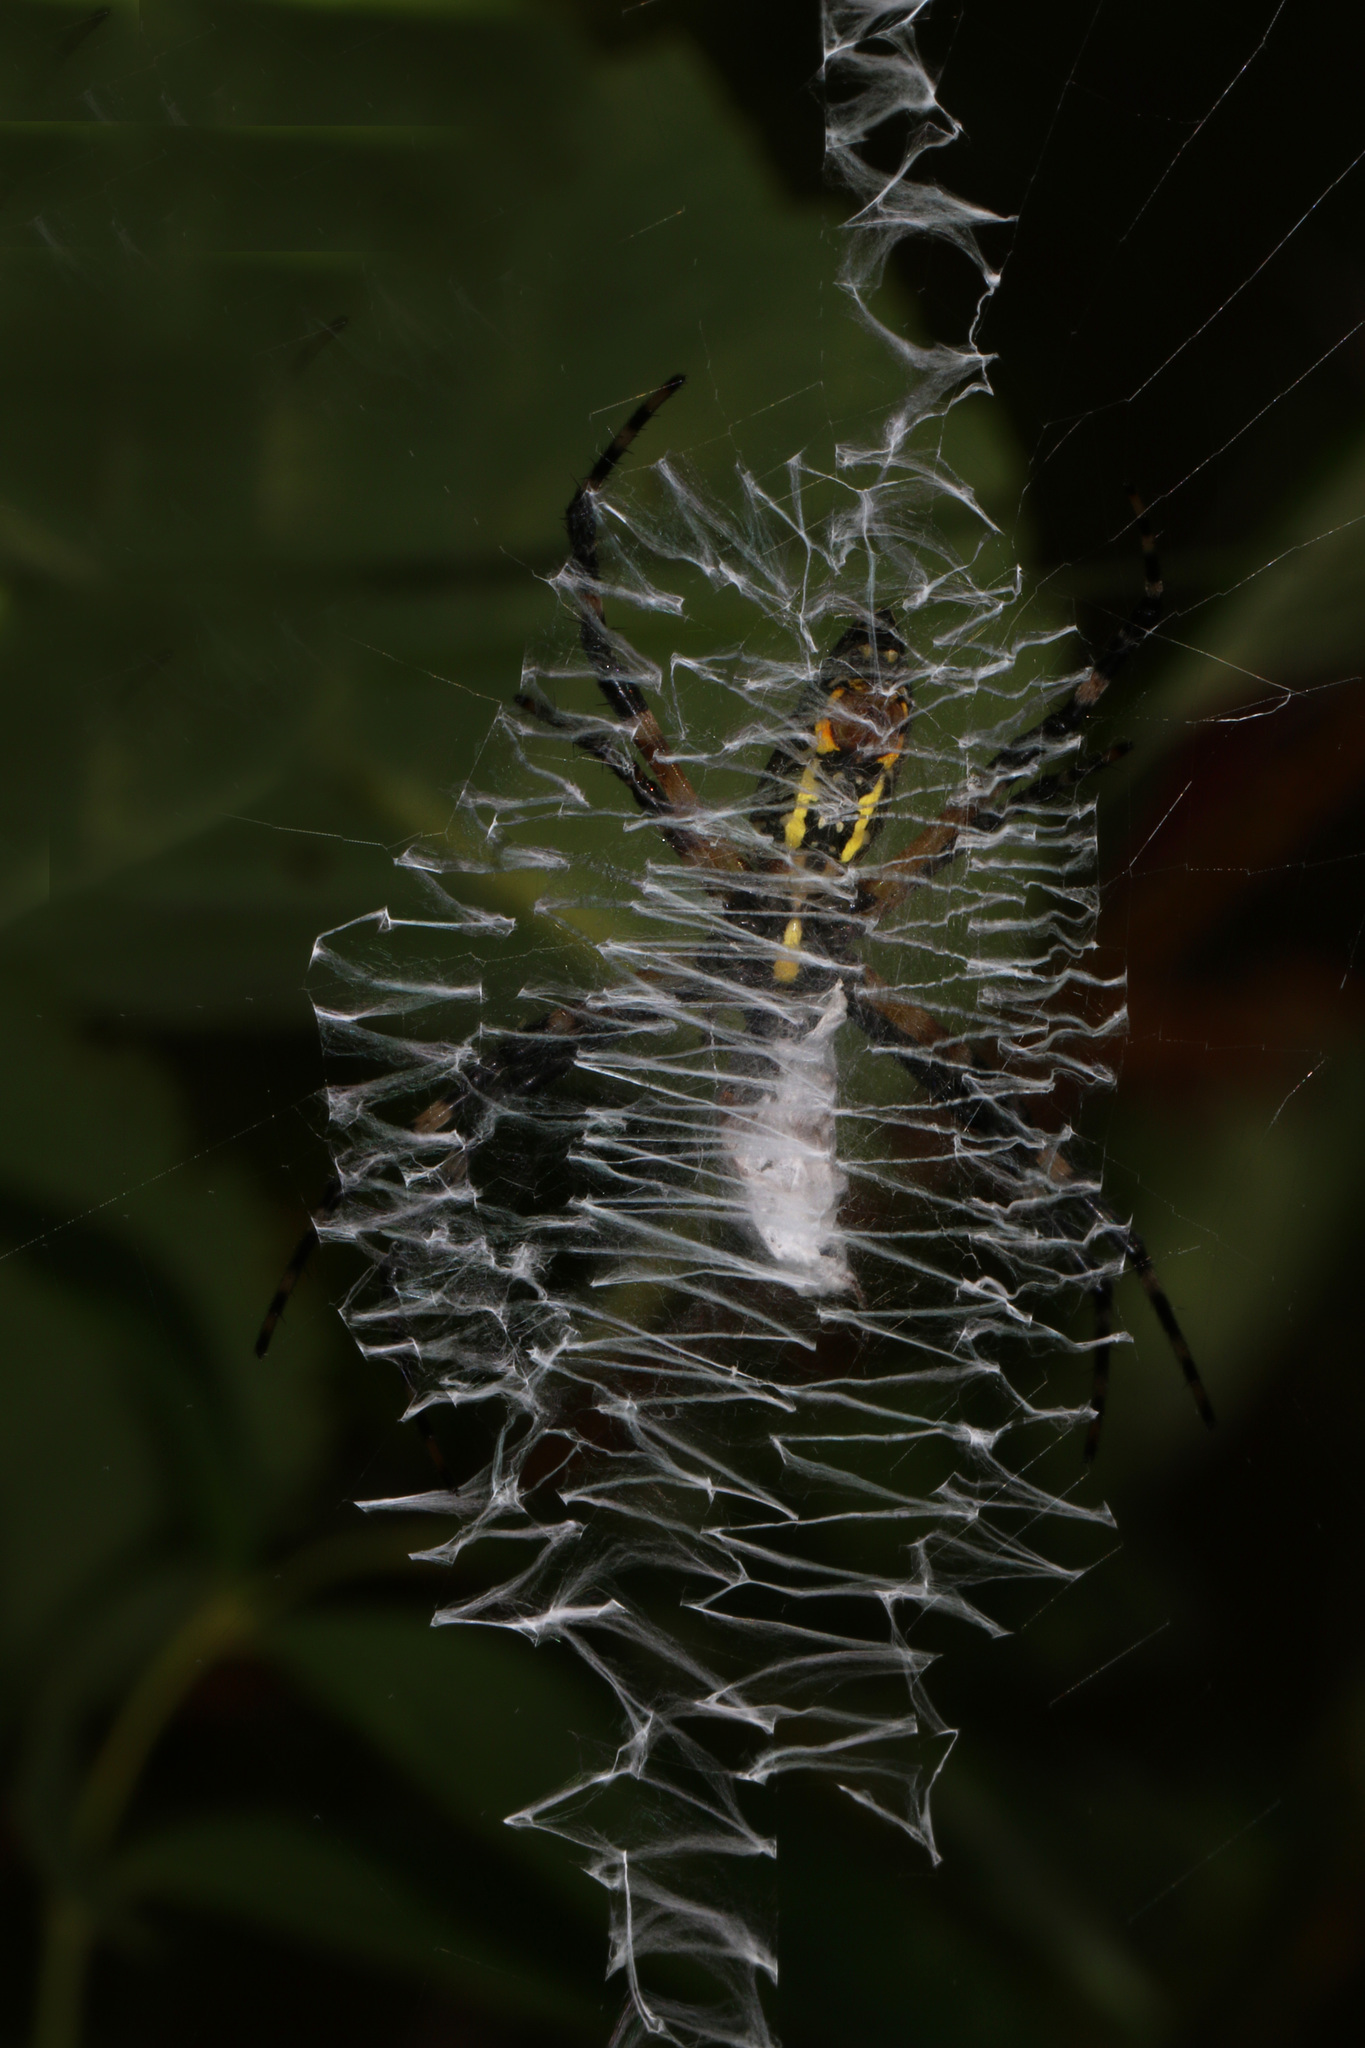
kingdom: Animalia
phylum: Arthropoda
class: Arachnida
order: Araneae
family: Araneidae
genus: Argiope
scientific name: Argiope aurantia
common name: Orb weavers
